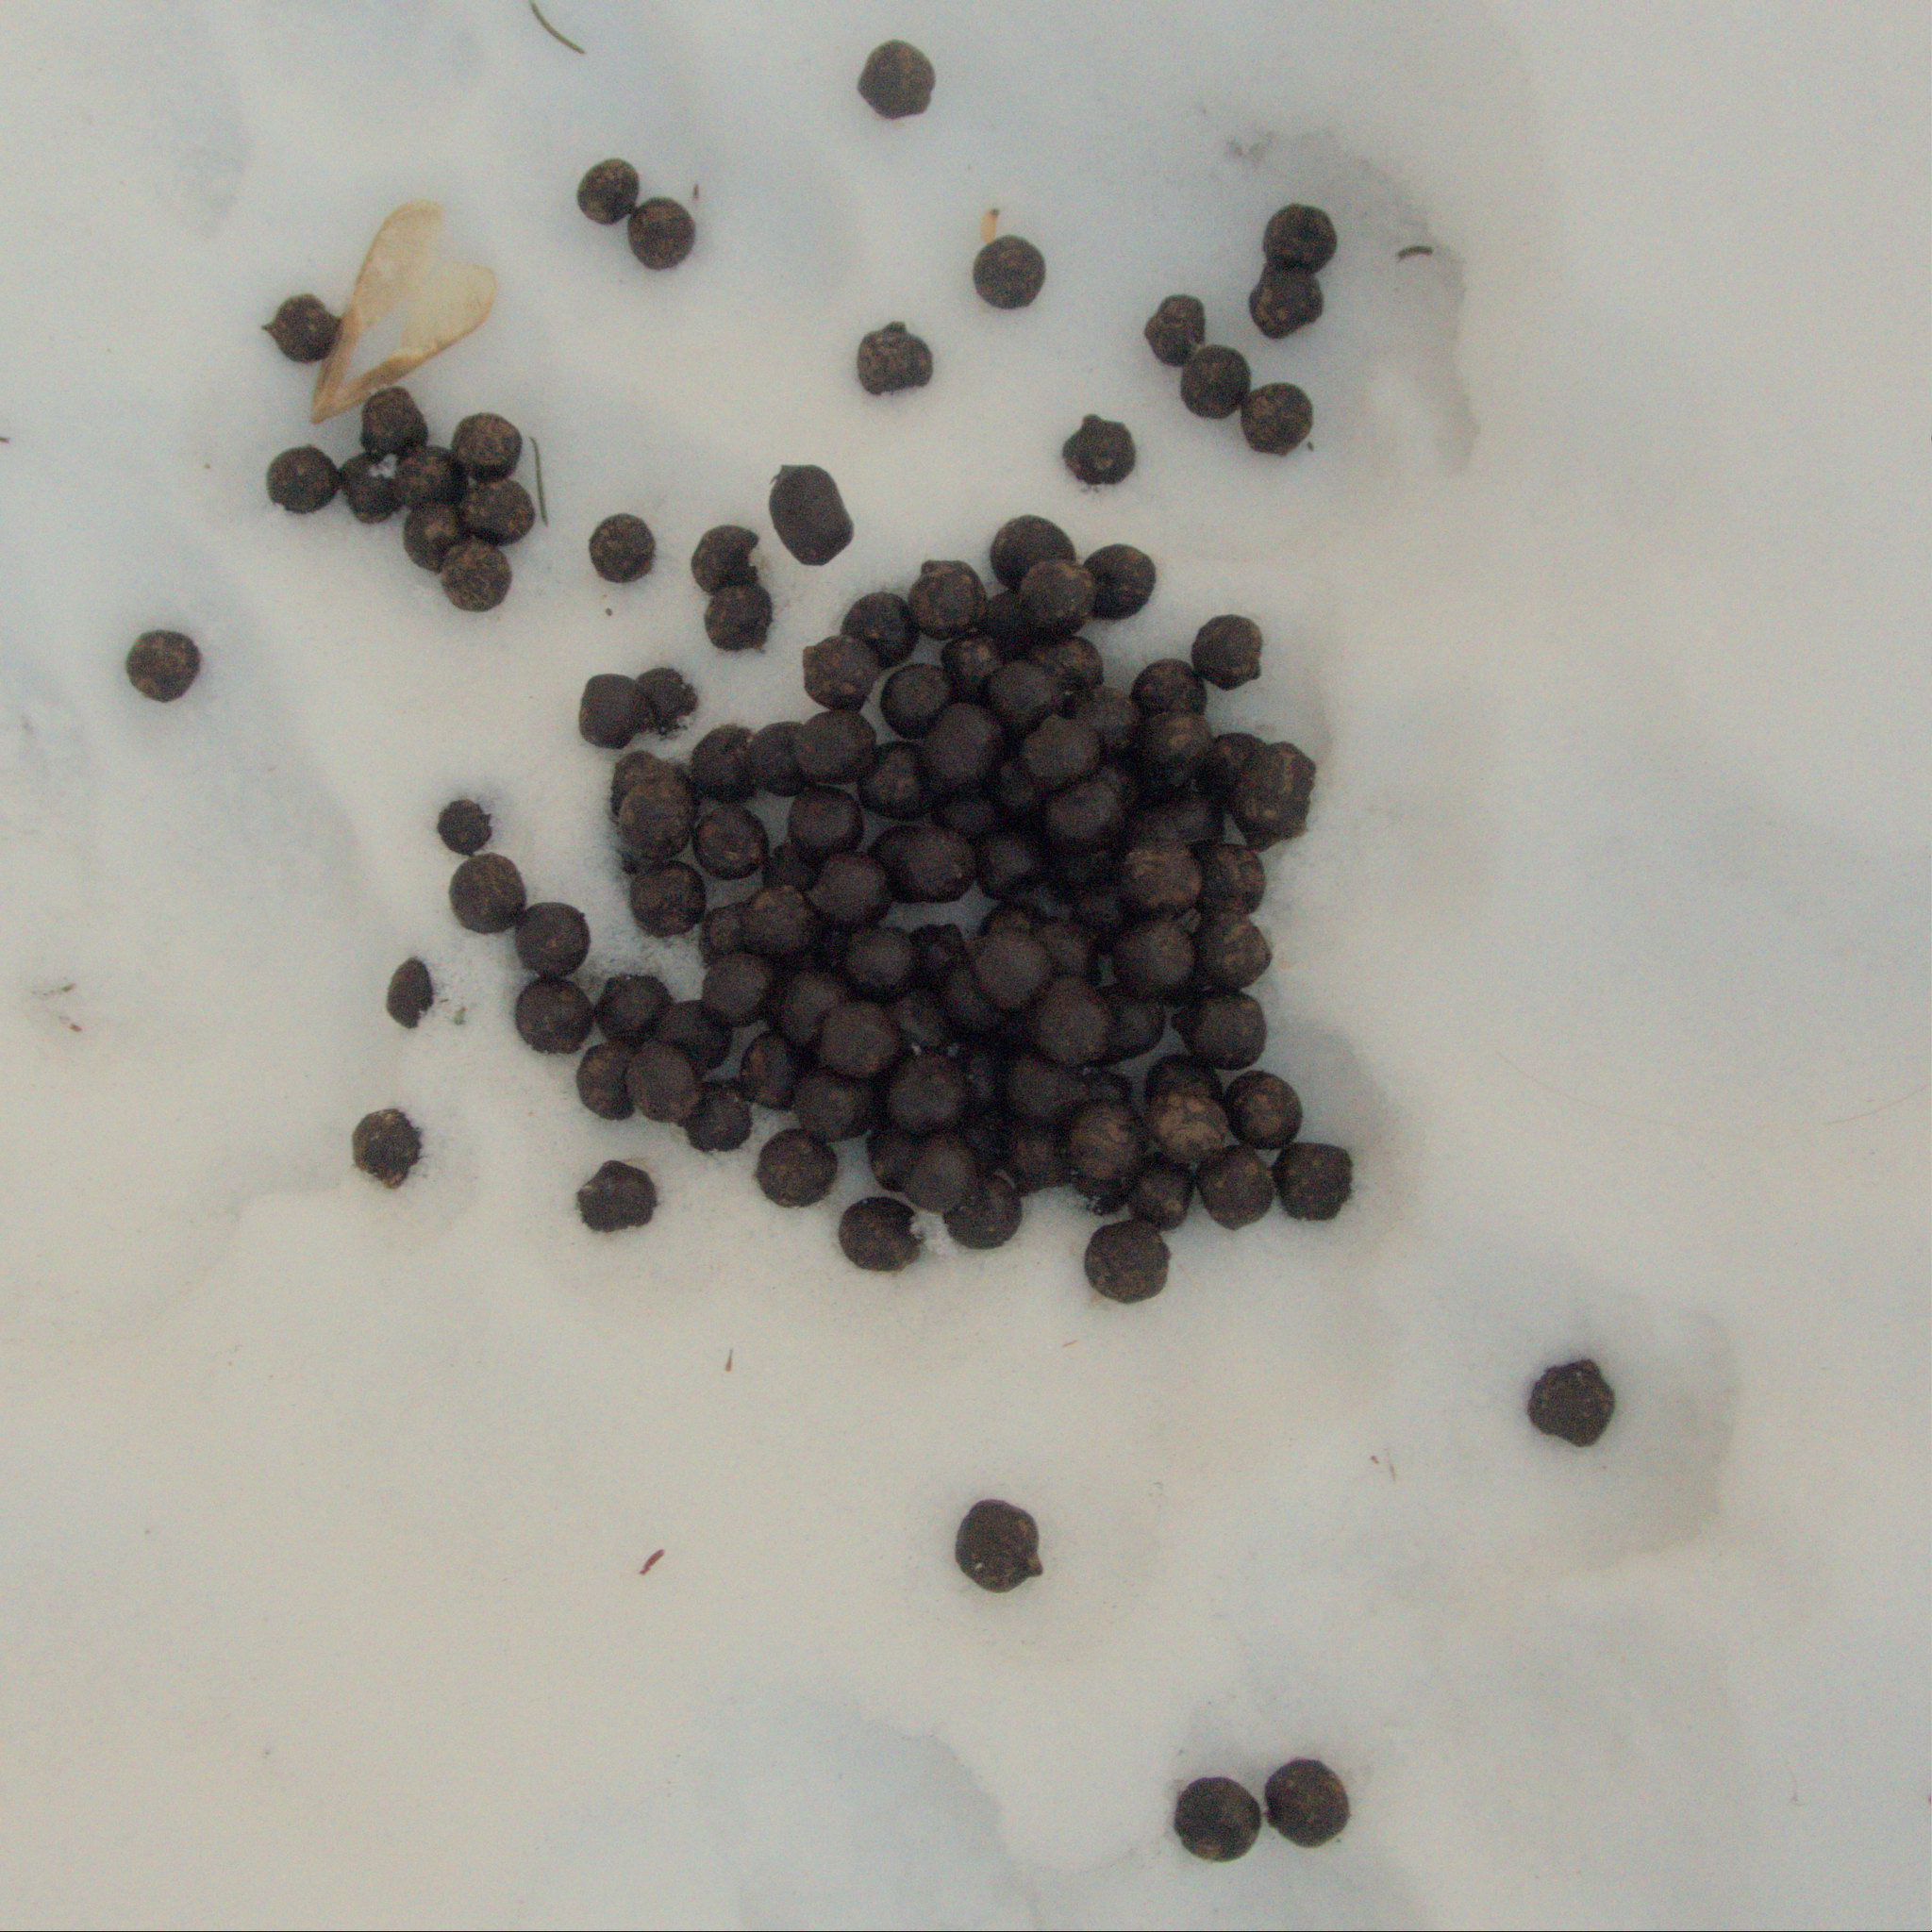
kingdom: Animalia
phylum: Chordata
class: Mammalia
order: Artiodactyla
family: Cervidae
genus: Odocoileus
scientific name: Odocoileus virginianus
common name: White-tailed deer
